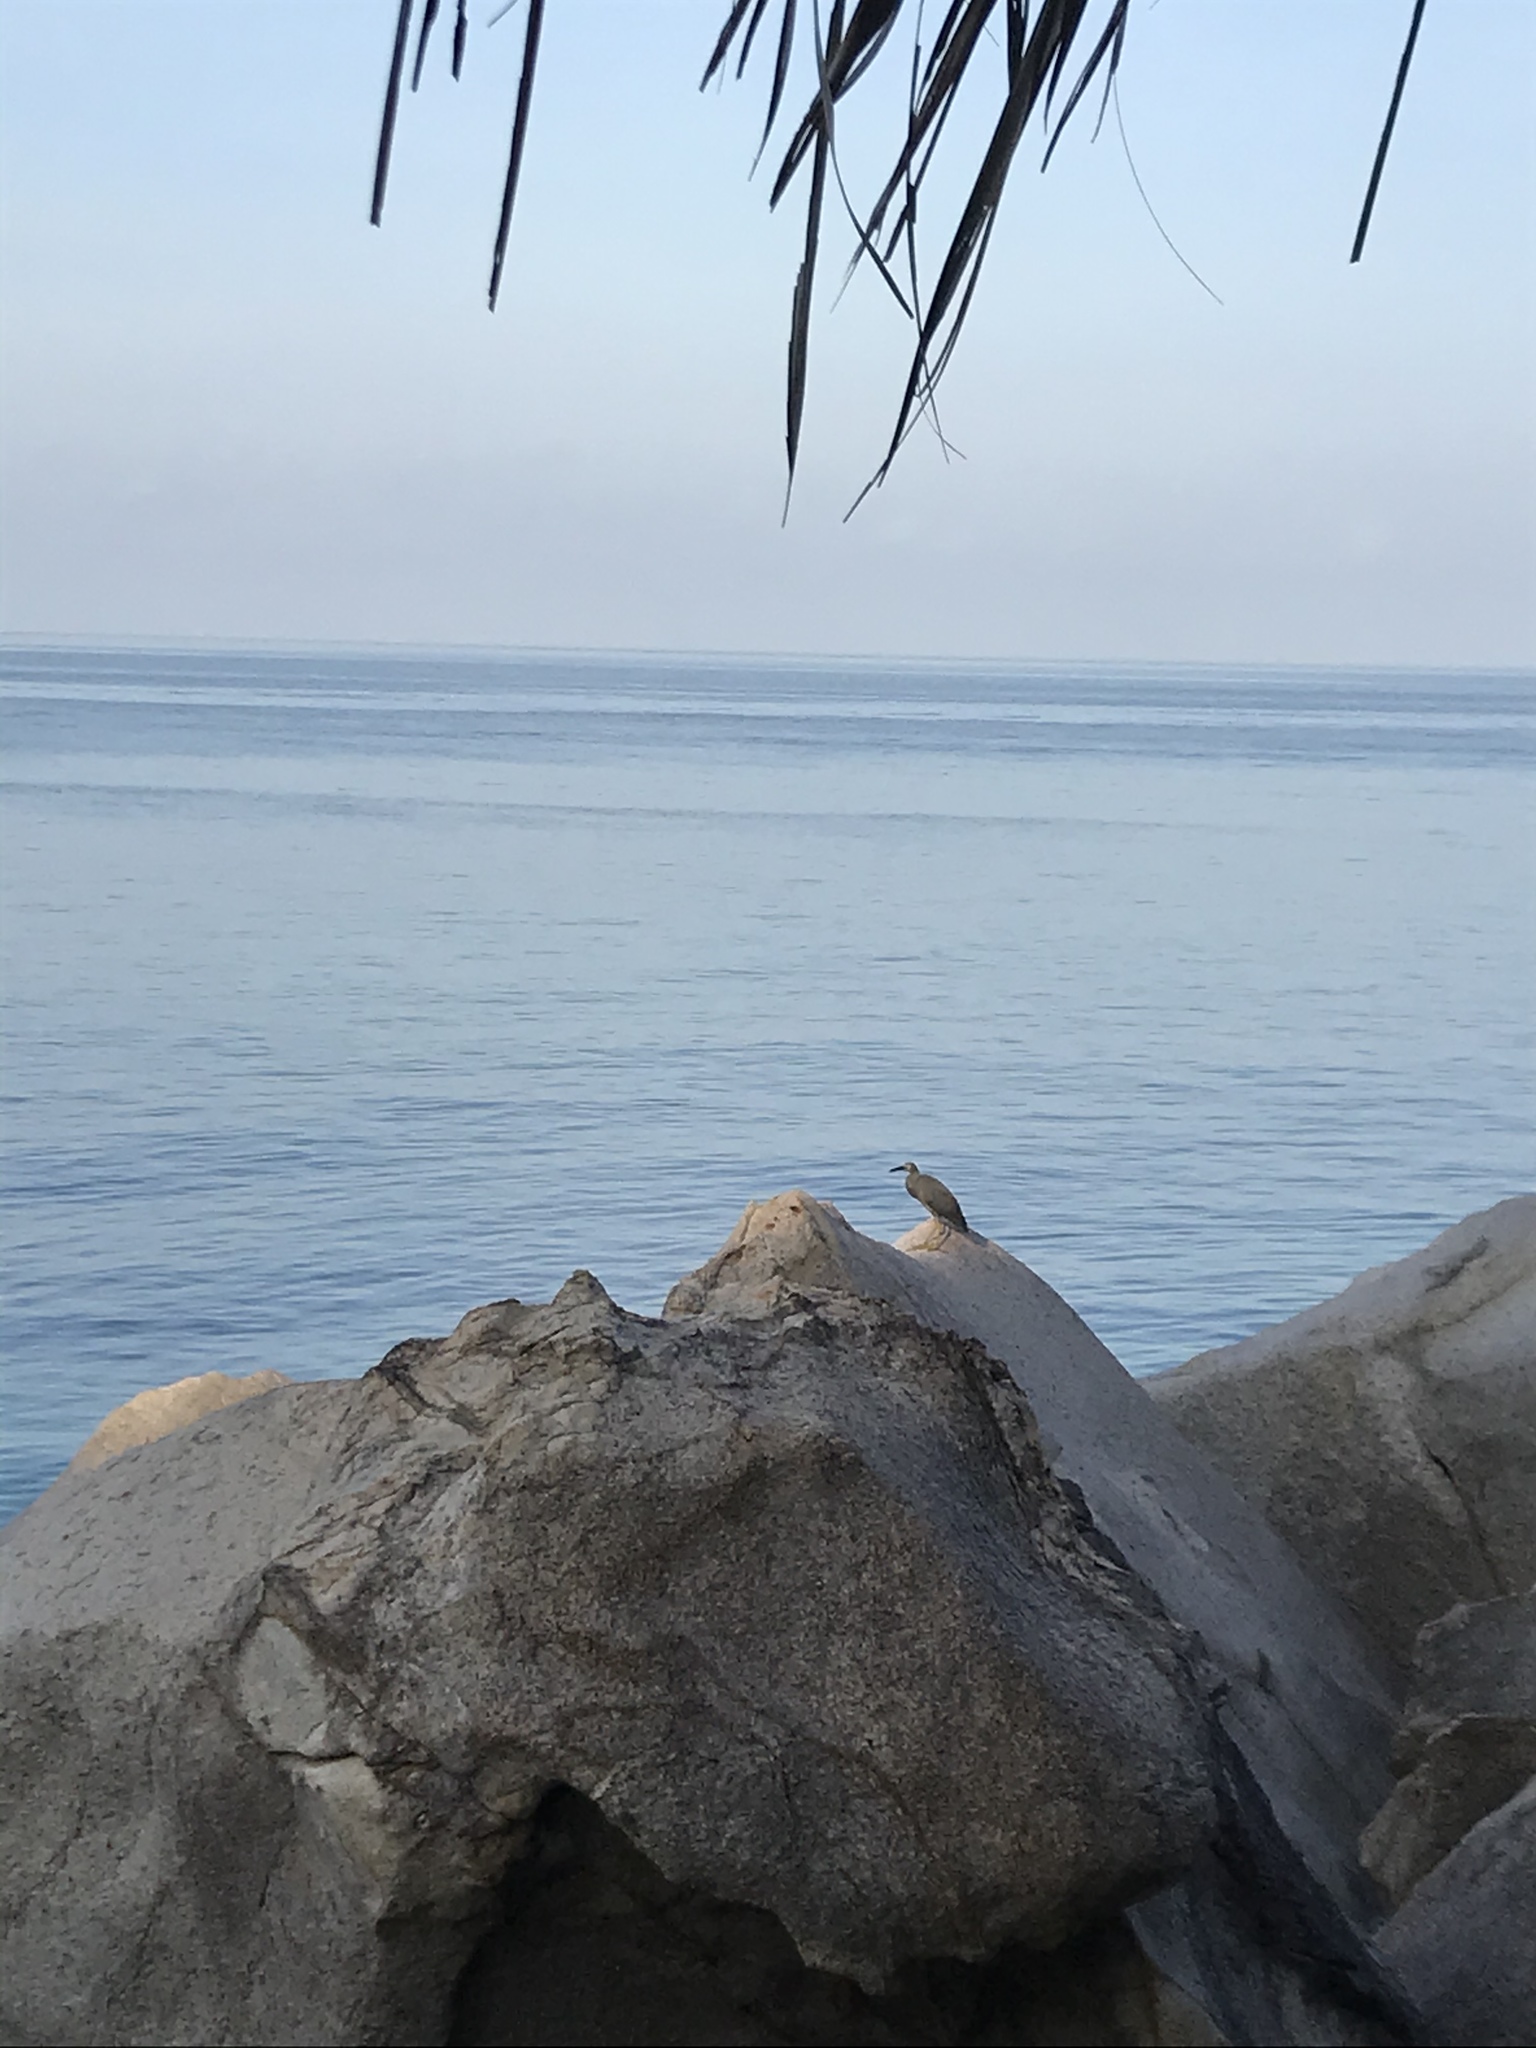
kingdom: Animalia
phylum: Chordata
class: Aves
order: Pelecaniformes
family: Ardeidae
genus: Egretta
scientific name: Egretta sacra
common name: Pacific reef heron
